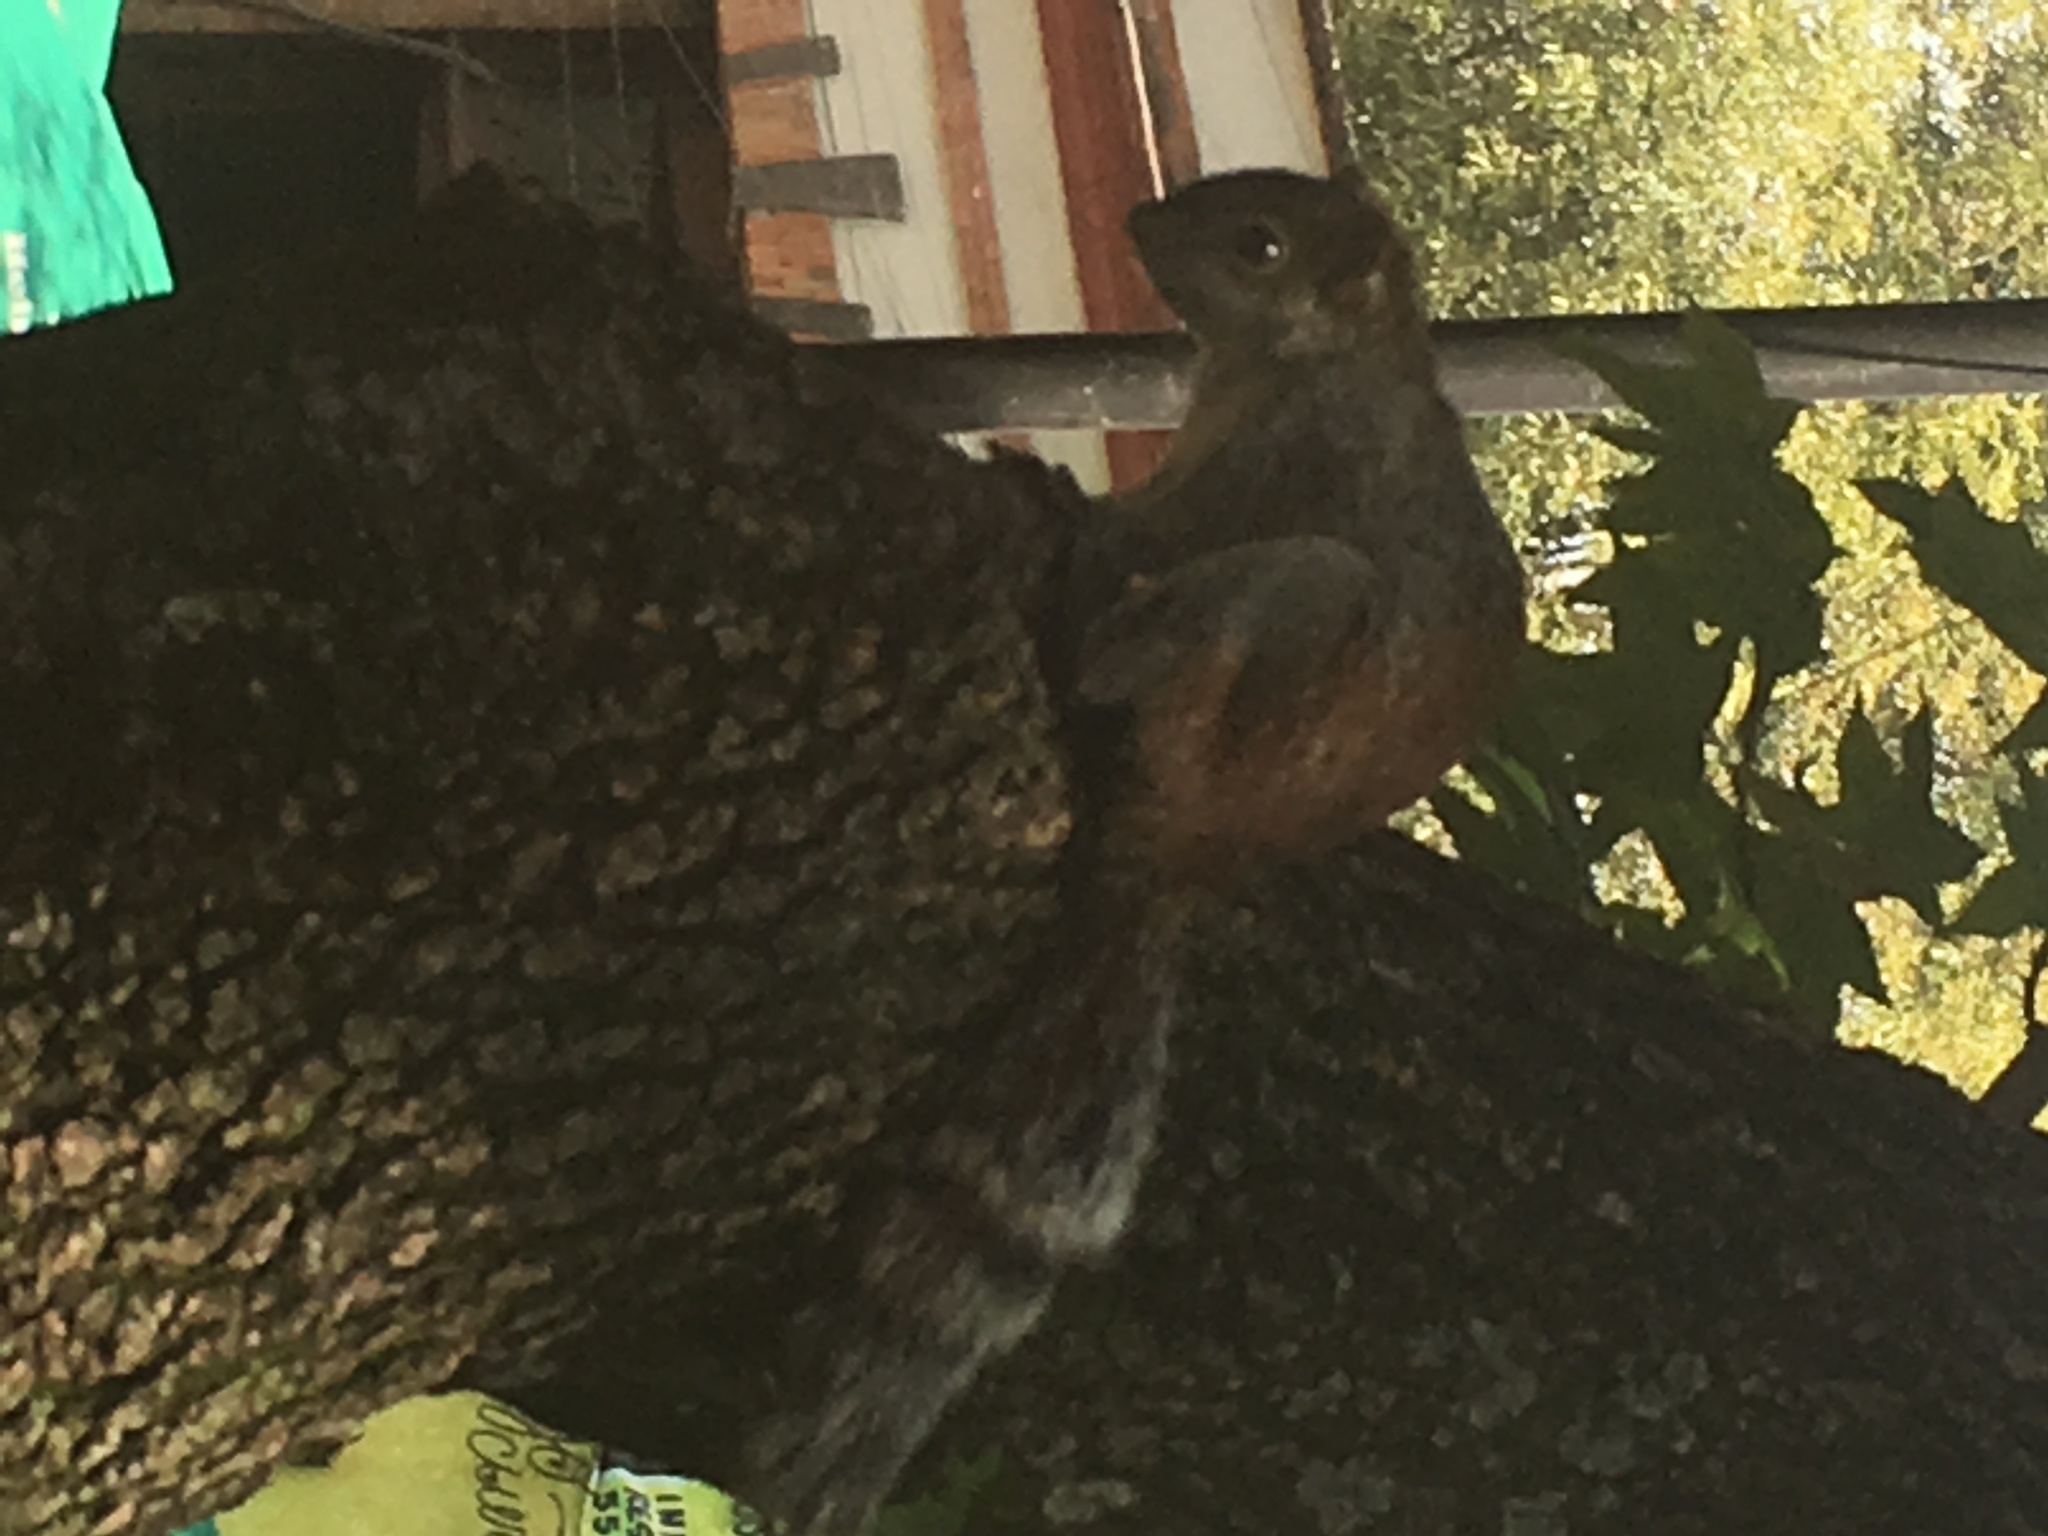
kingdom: Animalia
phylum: Chordata
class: Mammalia
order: Rodentia
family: Sciuridae
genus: Sciurus
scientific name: Sciurus aureogaster
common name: Red-bellied squirrel
